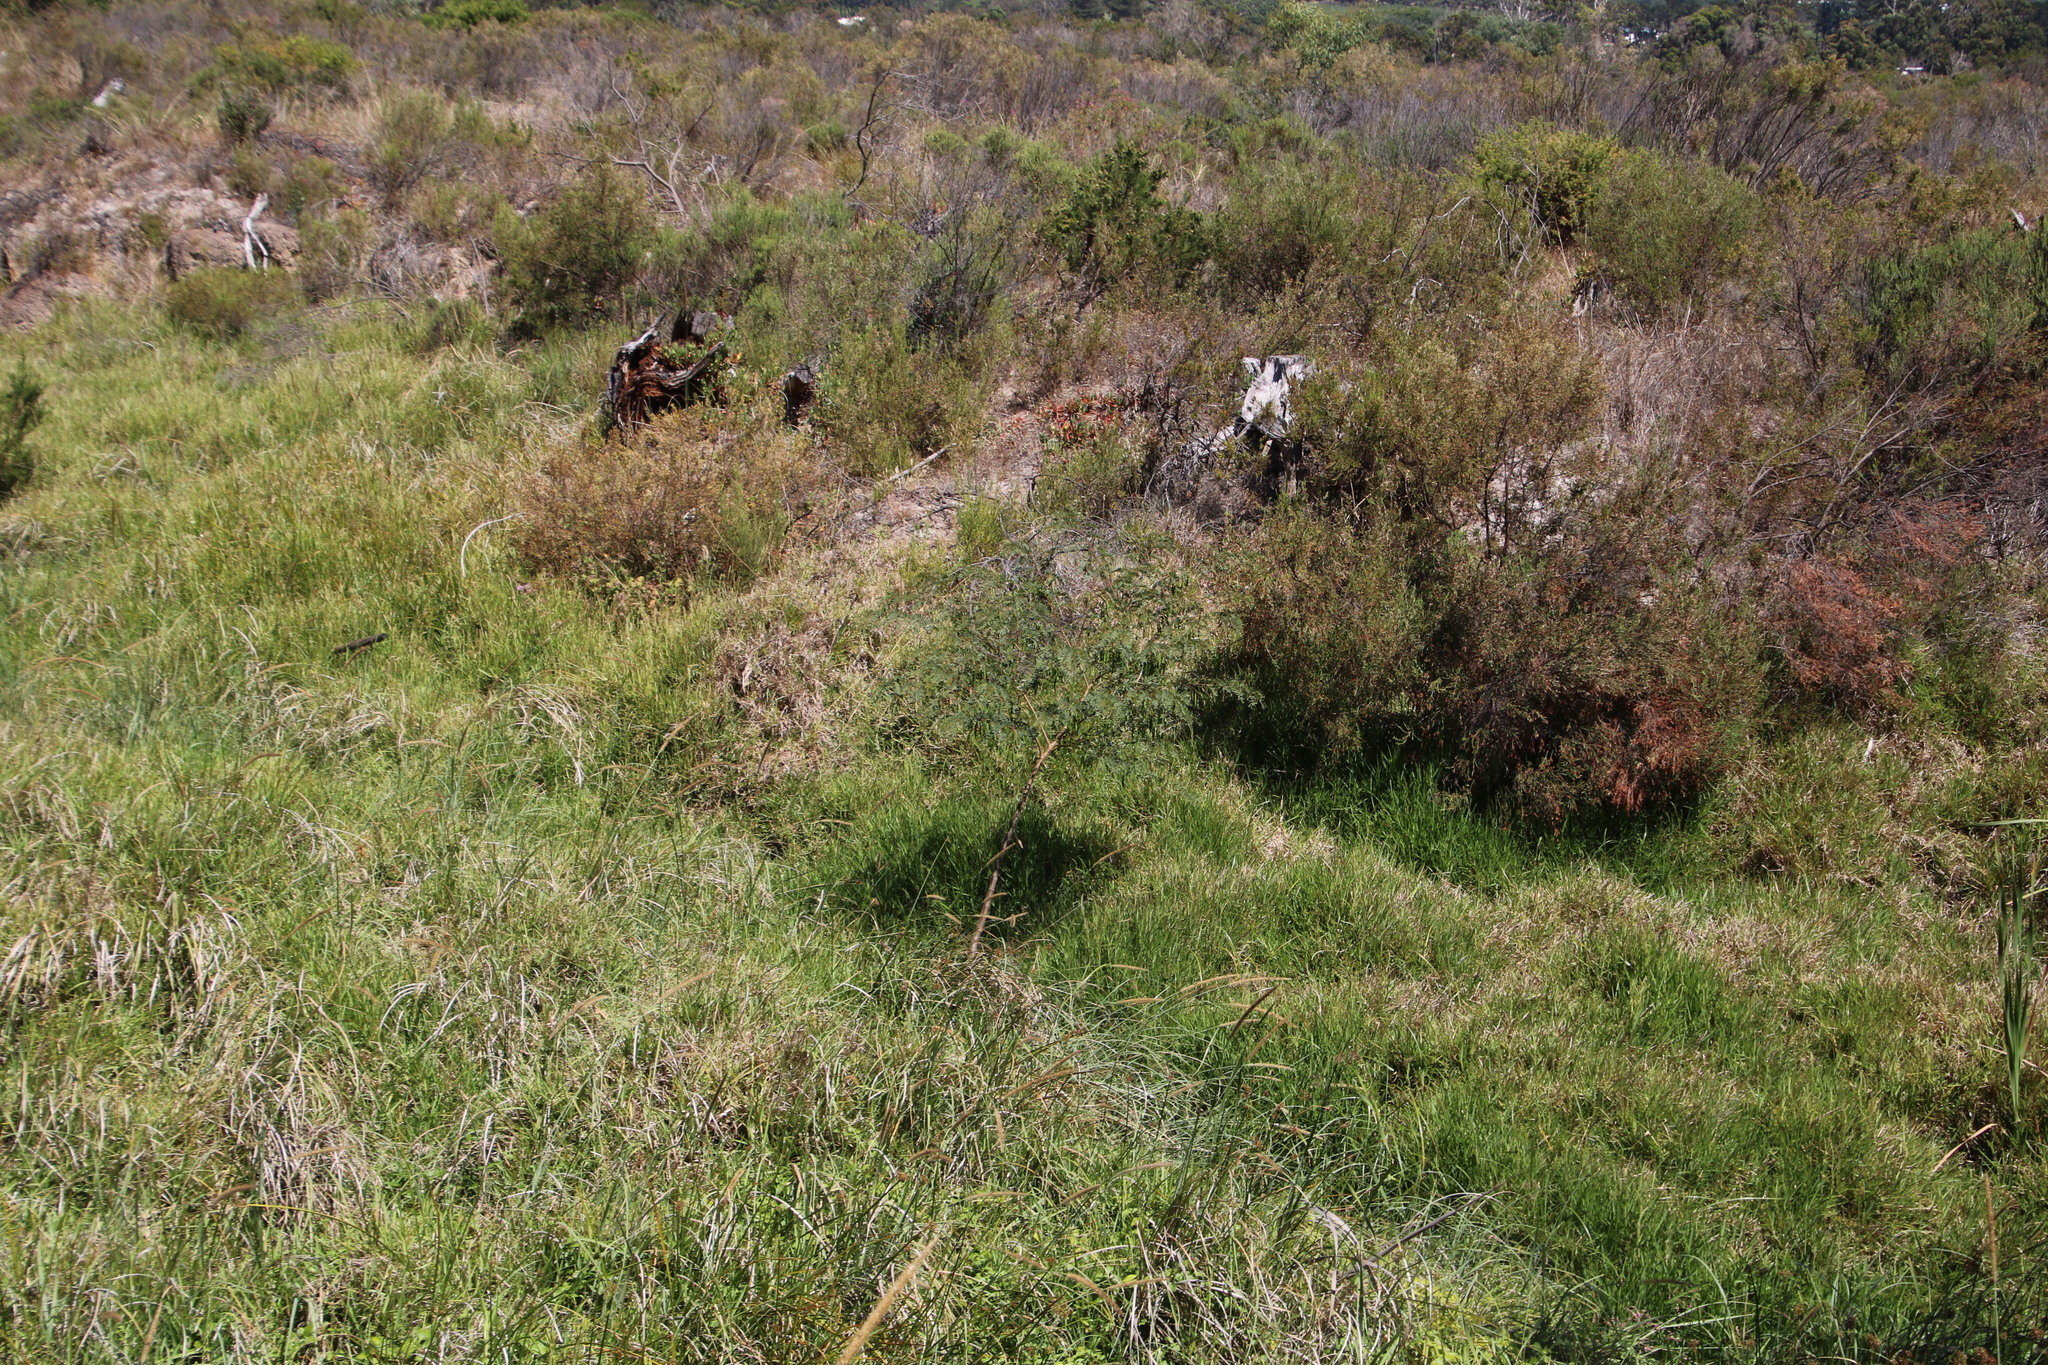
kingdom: Plantae
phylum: Tracheophyta
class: Magnoliopsida
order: Fabales
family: Fabaceae
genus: Sesbania
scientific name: Sesbania punicea
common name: Rattlebox
